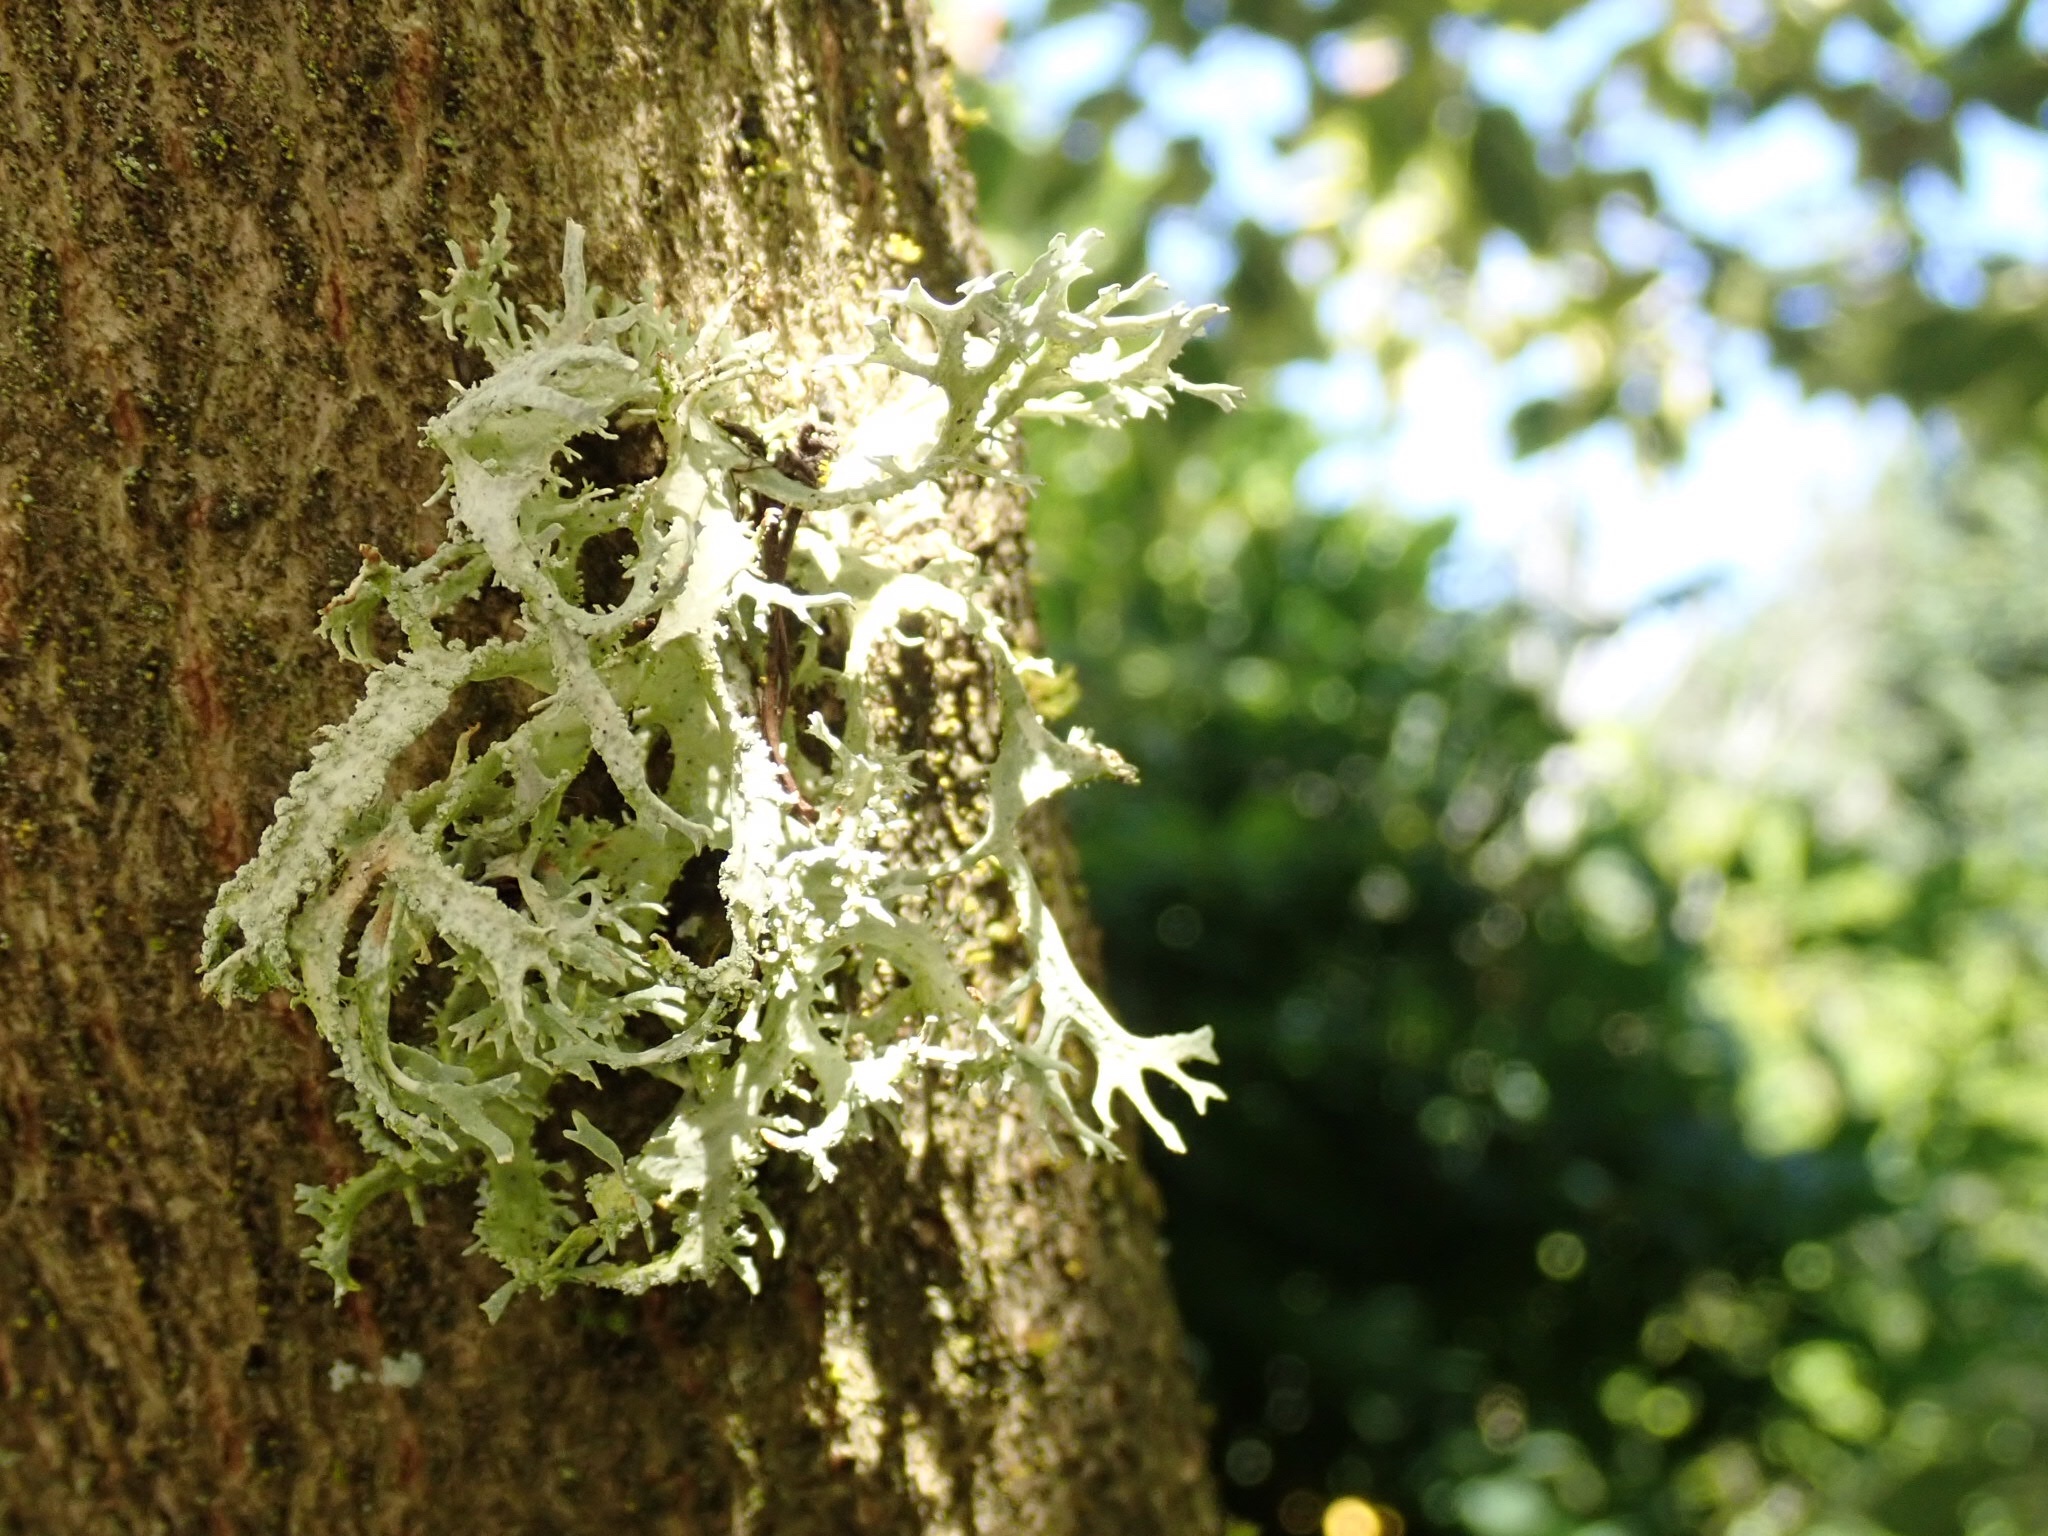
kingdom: Fungi
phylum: Ascomycota
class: Lecanoromycetes
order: Lecanorales
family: Parmeliaceae
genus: Evernia
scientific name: Evernia prunastri
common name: Oak moss
